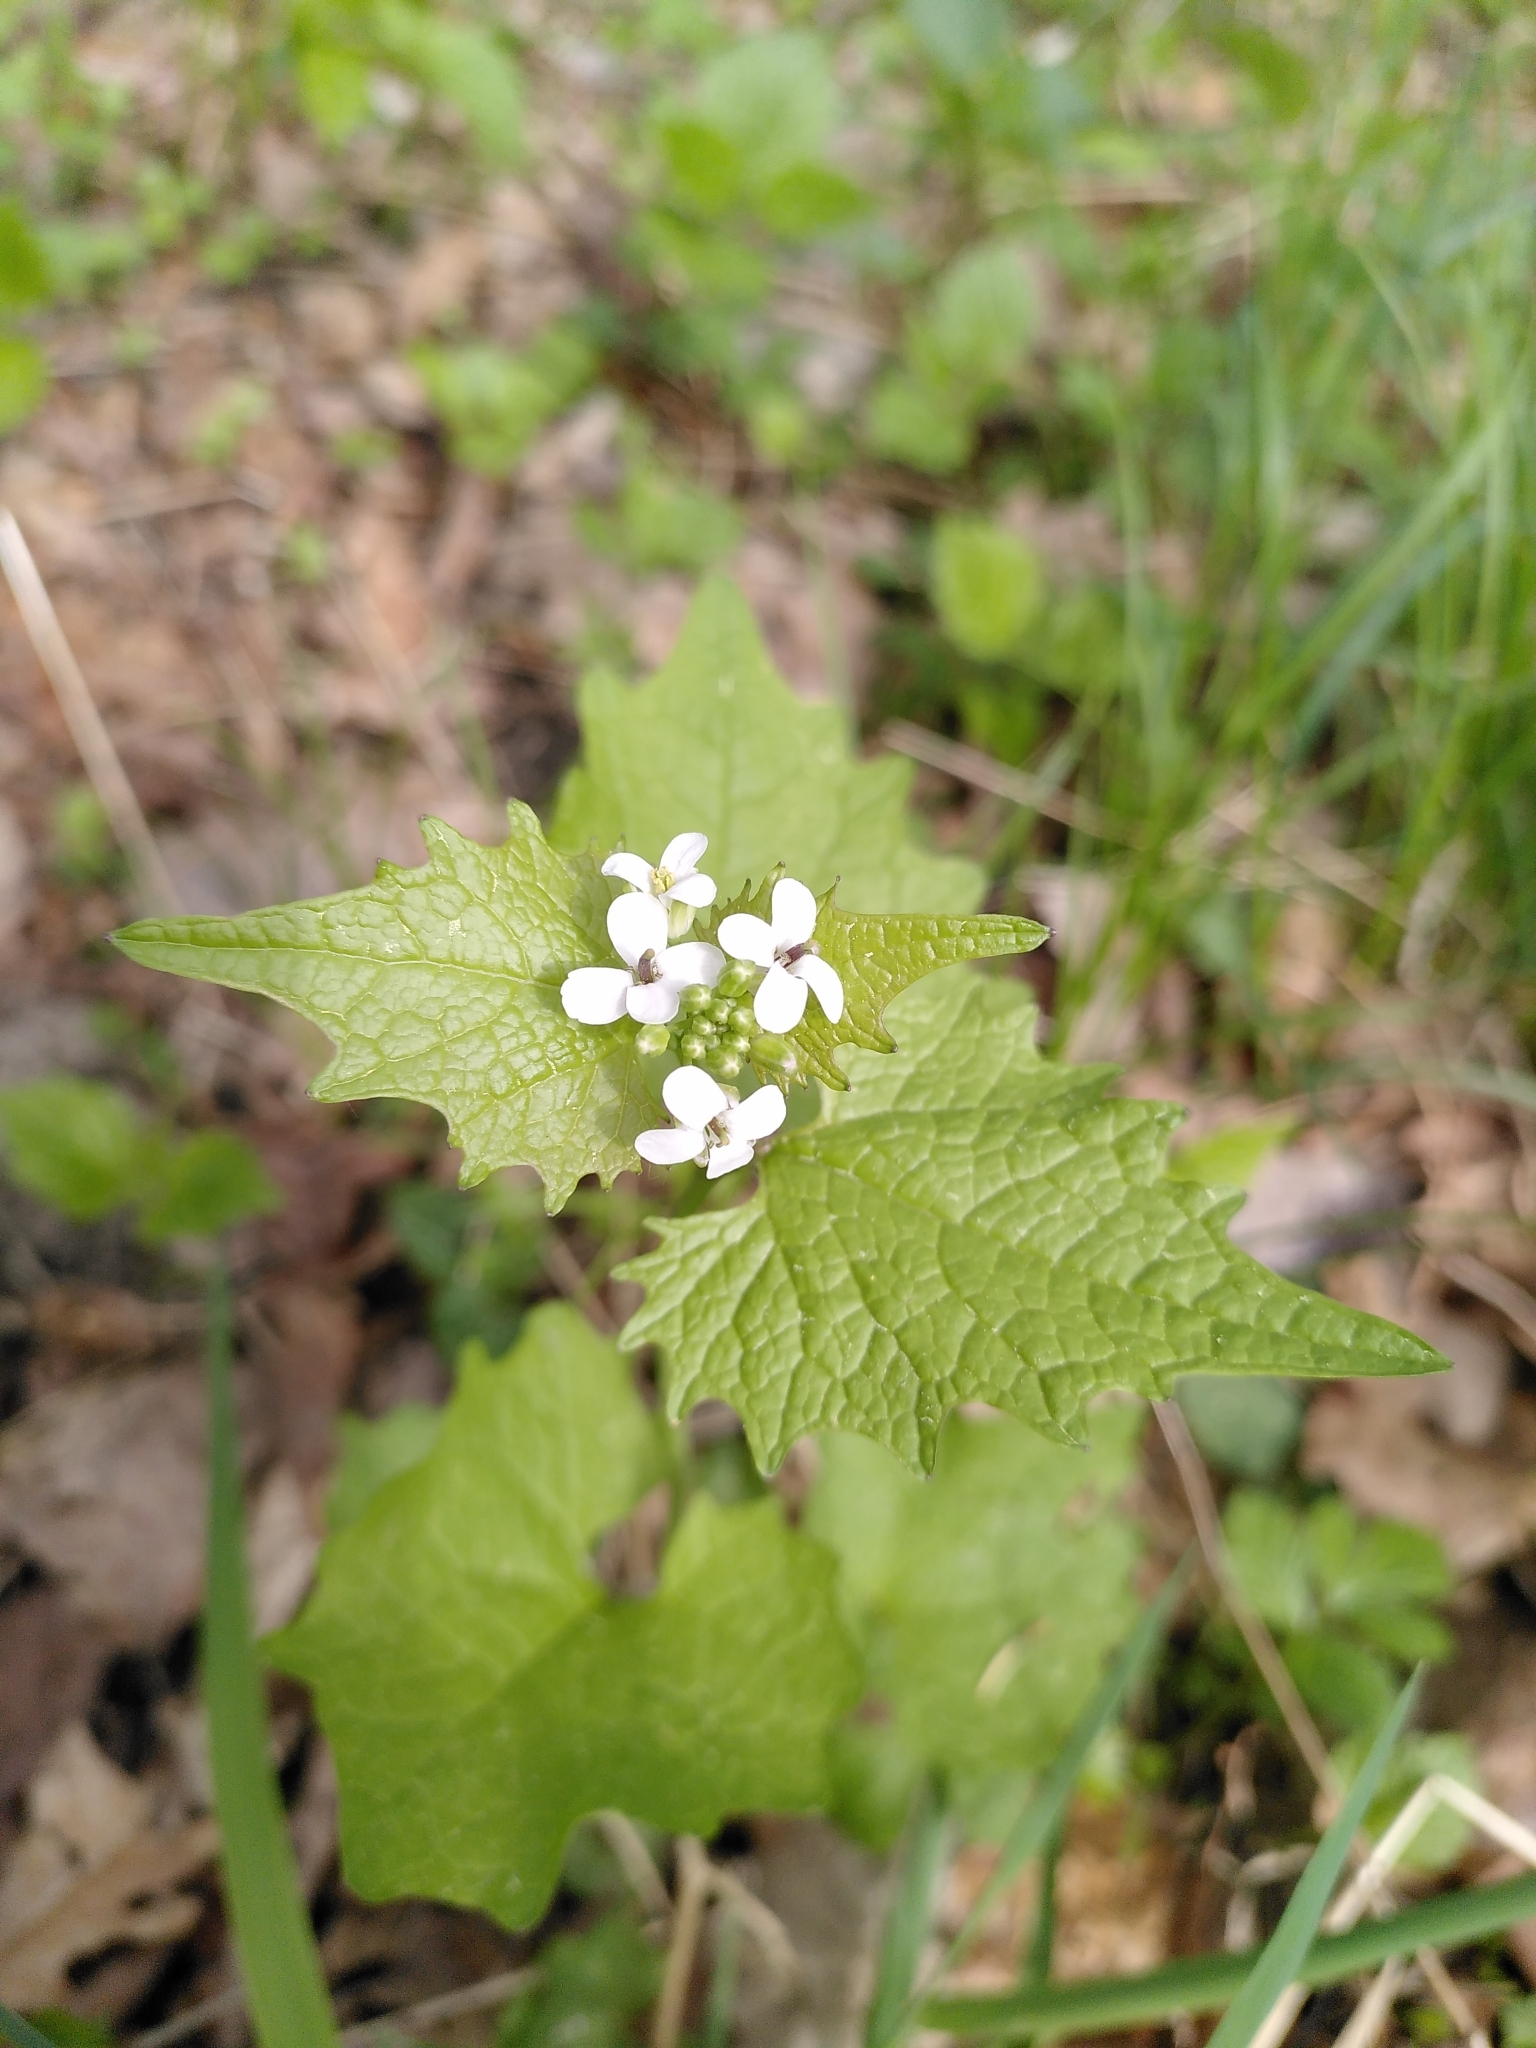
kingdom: Plantae
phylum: Tracheophyta
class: Magnoliopsida
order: Brassicales
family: Brassicaceae
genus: Alliaria
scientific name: Alliaria petiolata
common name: Garlic mustard
